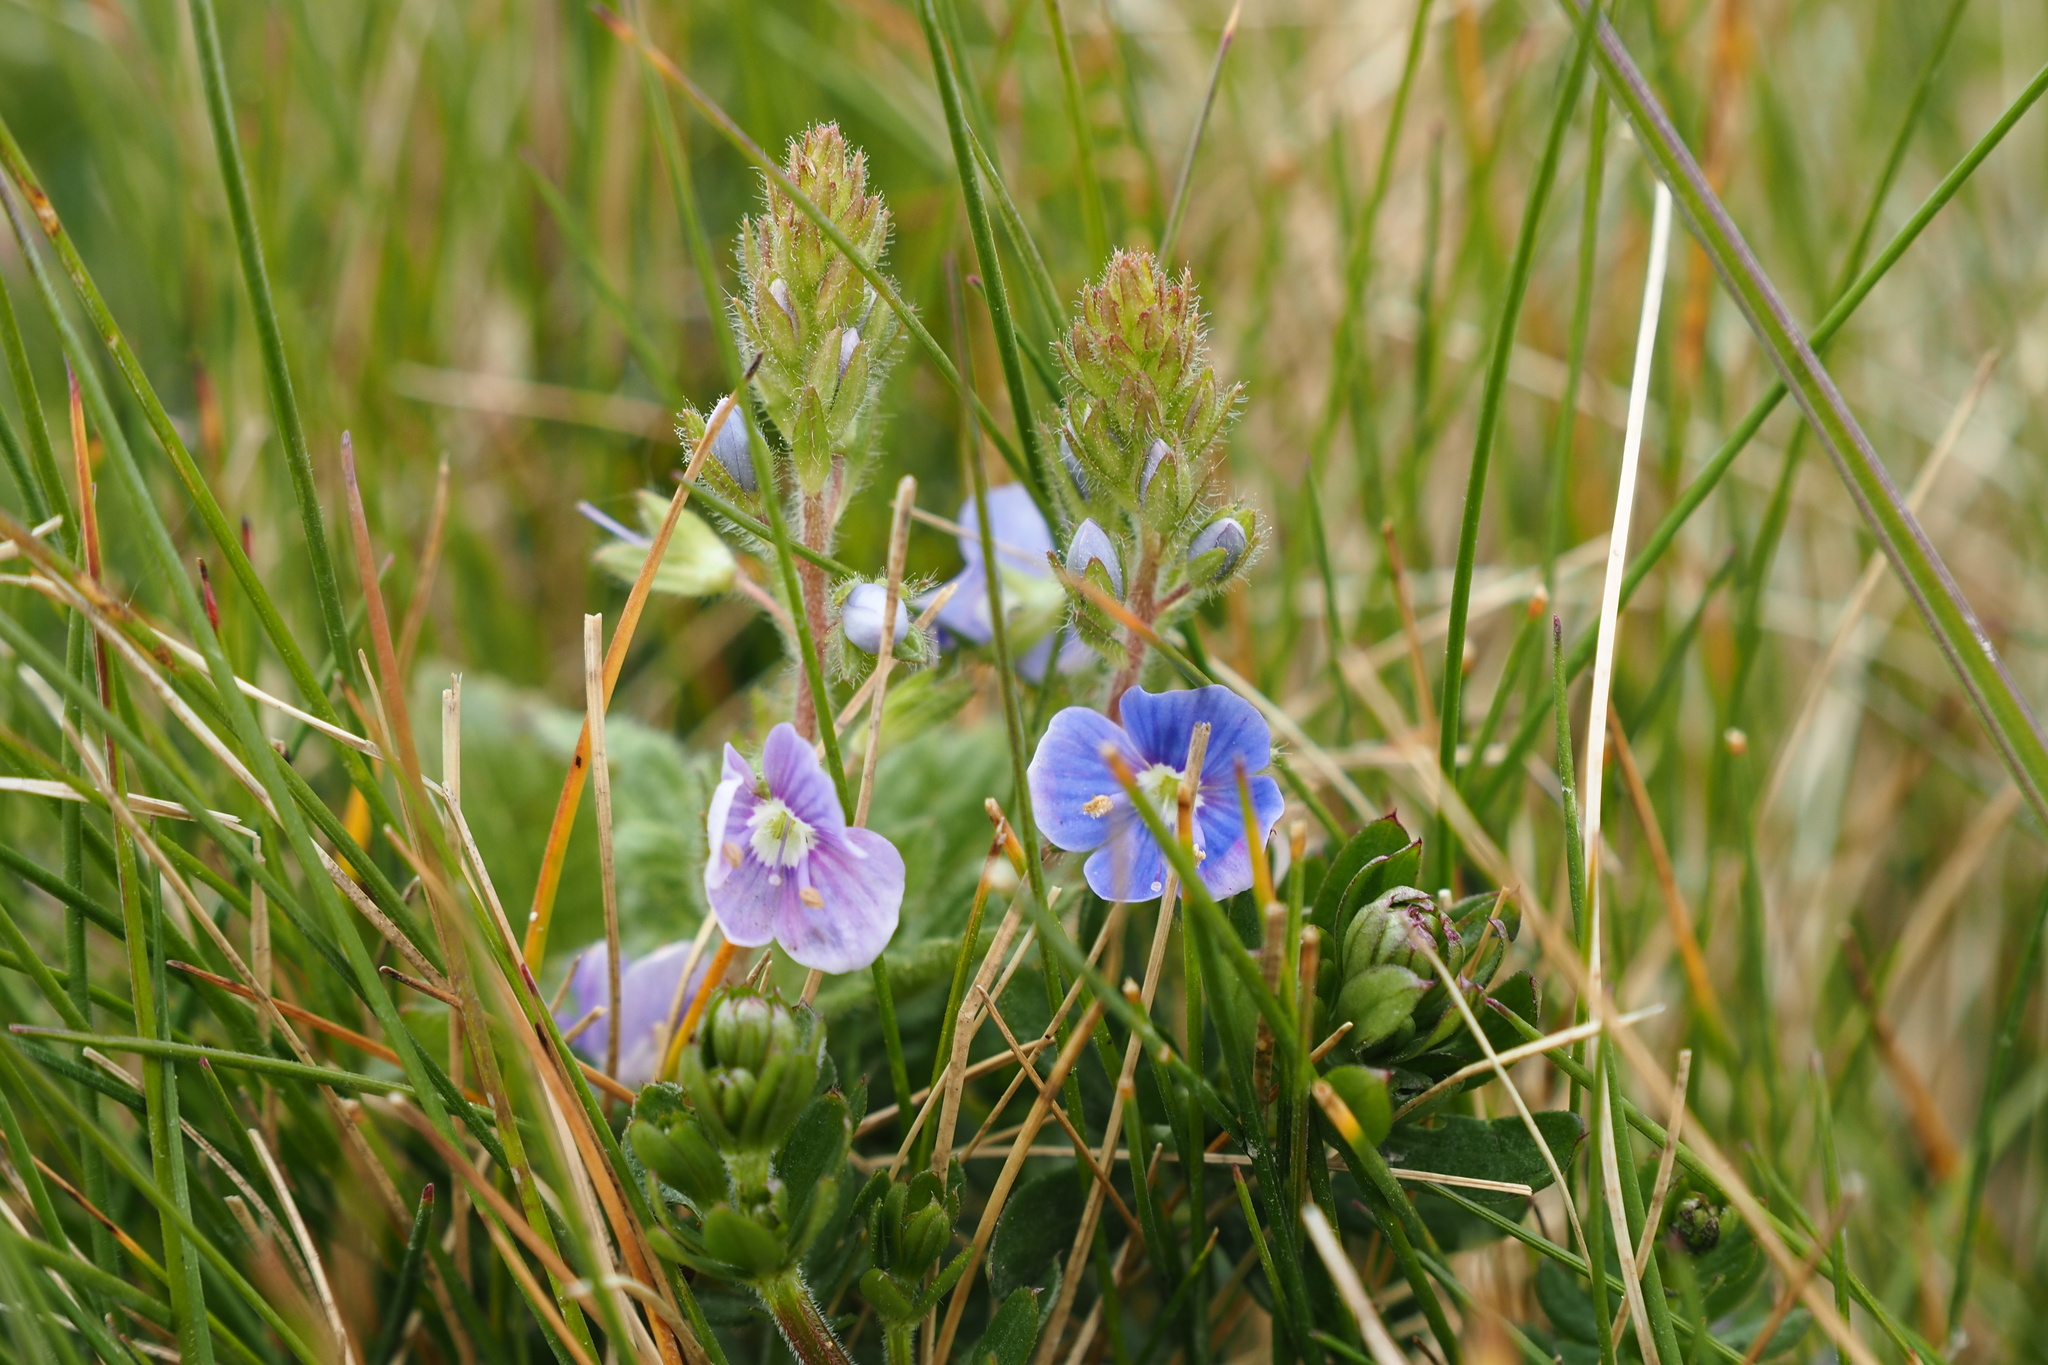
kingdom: Plantae
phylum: Tracheophyta
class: Magnoliopsida
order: Lamiales
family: Plantaginaceae
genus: Veronica
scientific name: Veronica chamaedrys
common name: Germander speedwell
